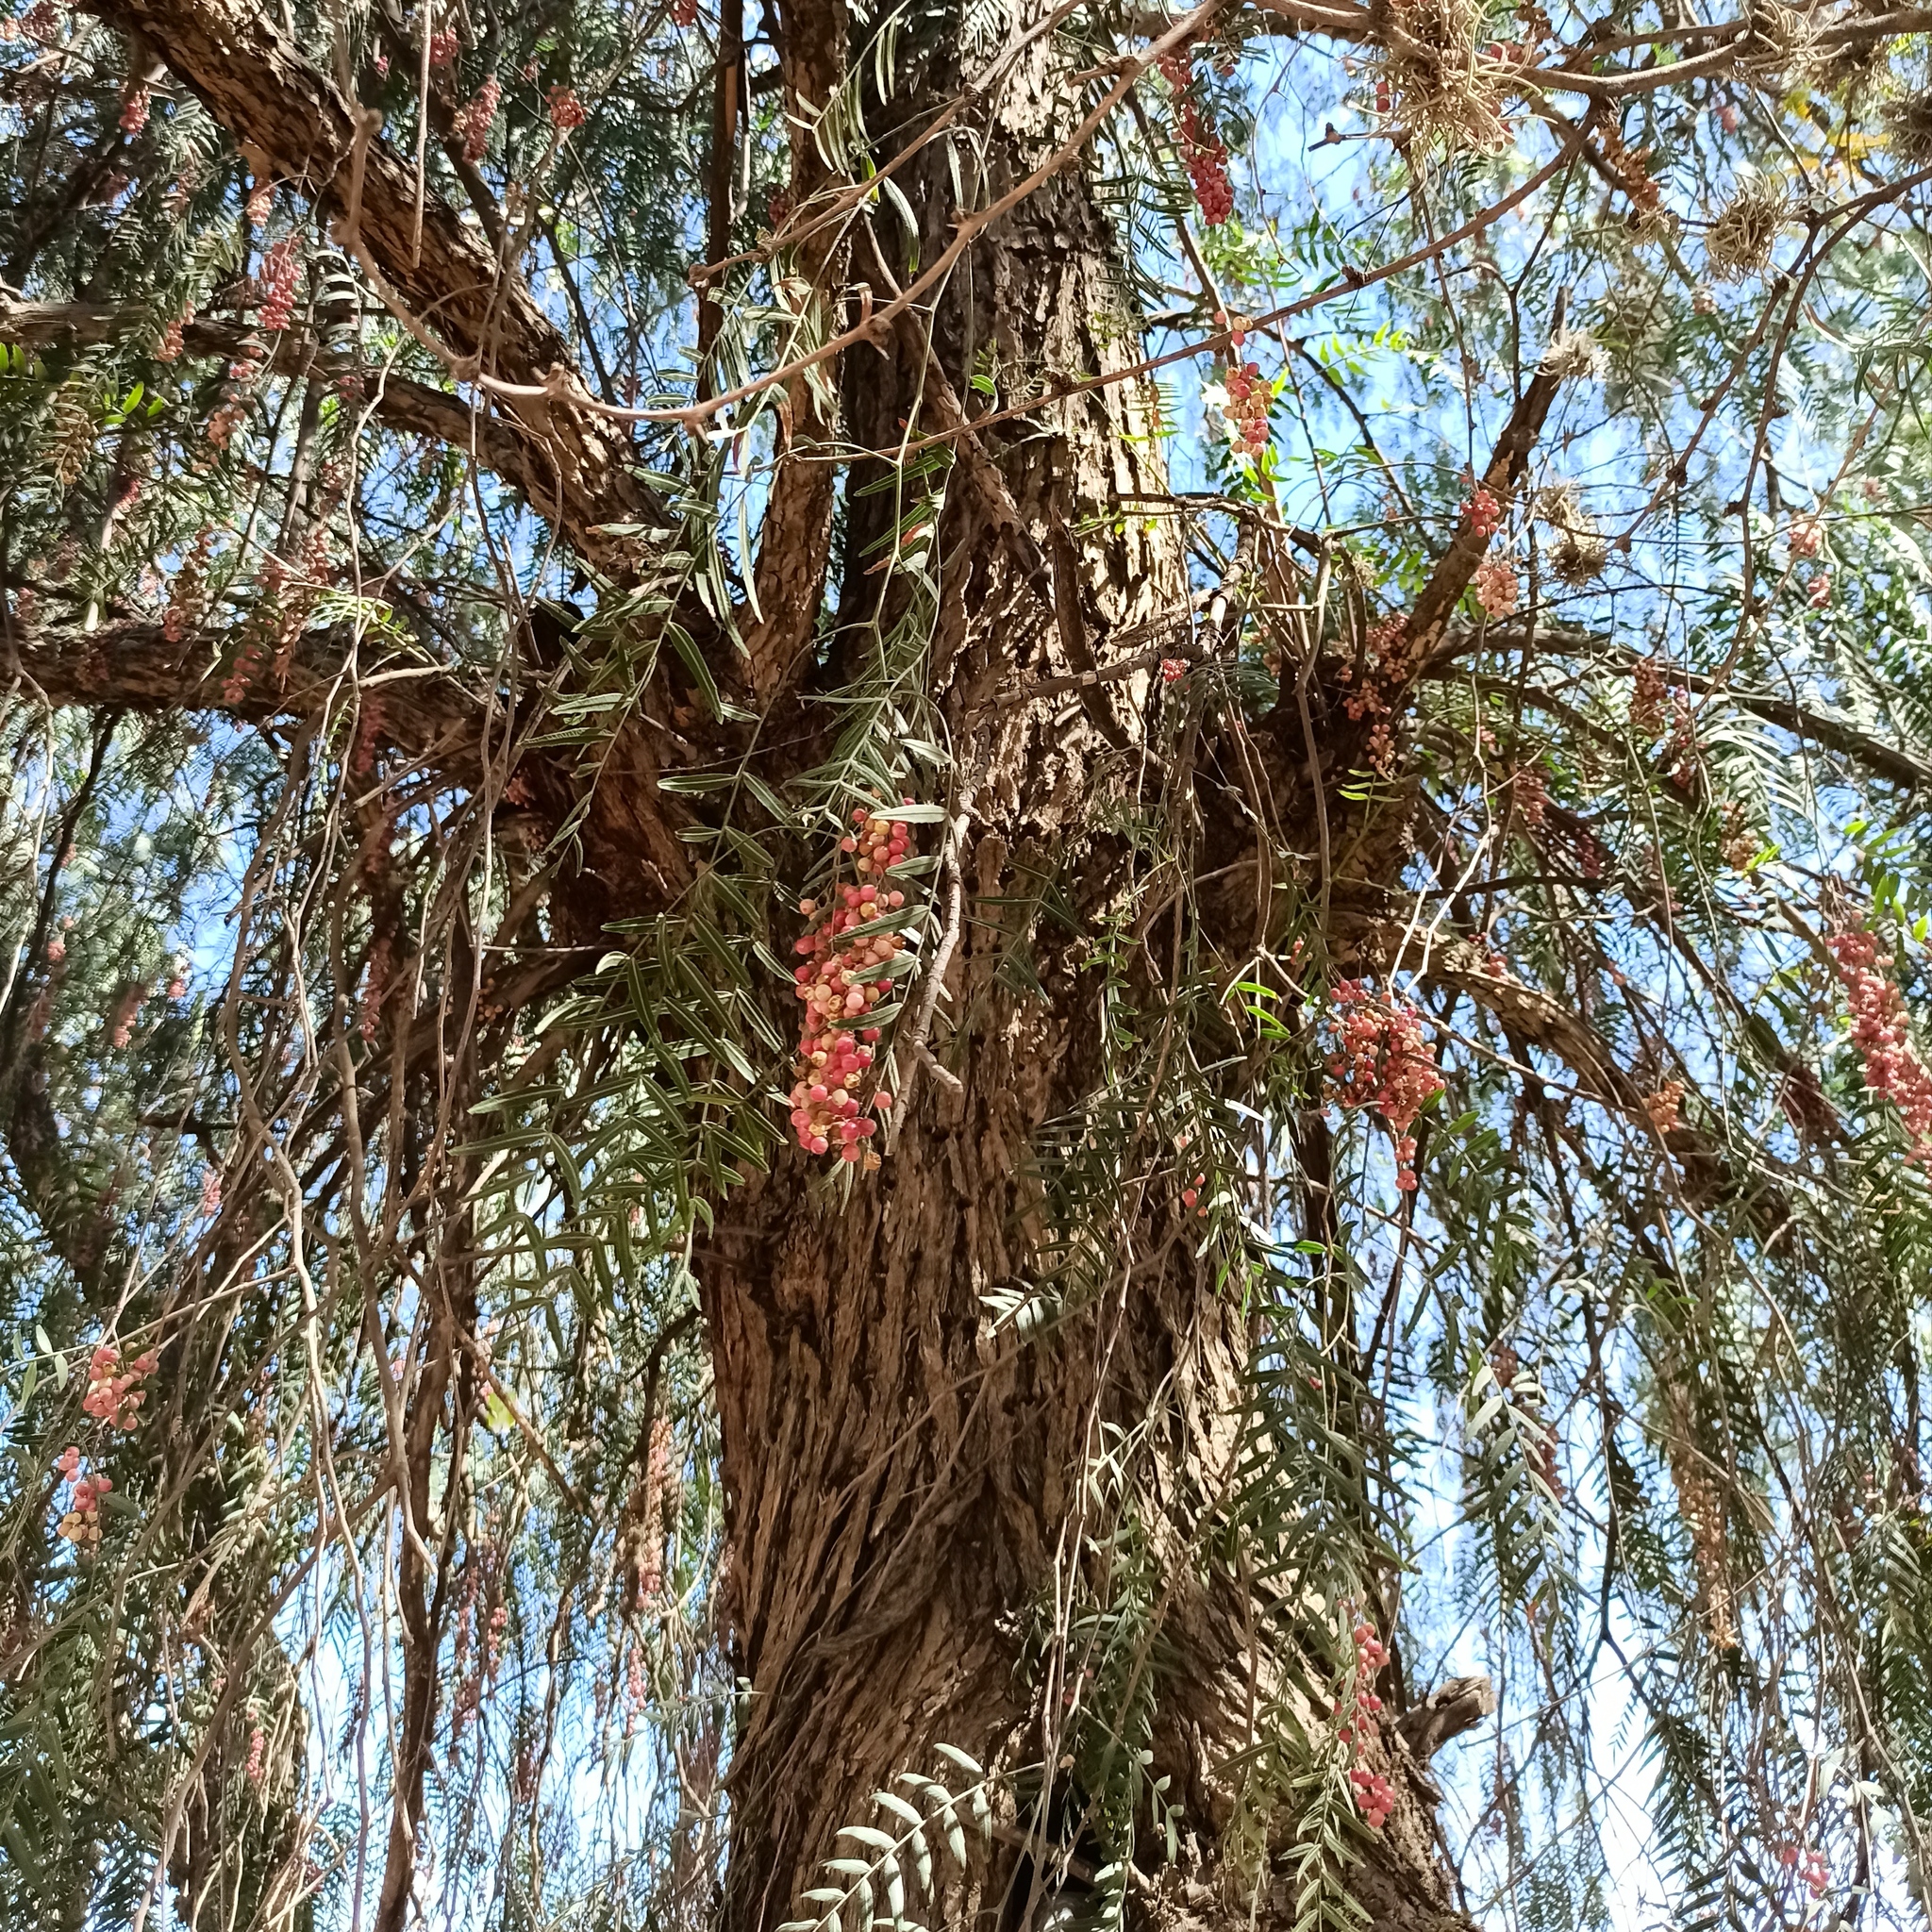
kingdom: Plantae
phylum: Tracheophyta
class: Magnoliopsida
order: Sapindales
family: Anacardiaceae
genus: Schinus
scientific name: Schinus molle
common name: Peruvian peppertree
